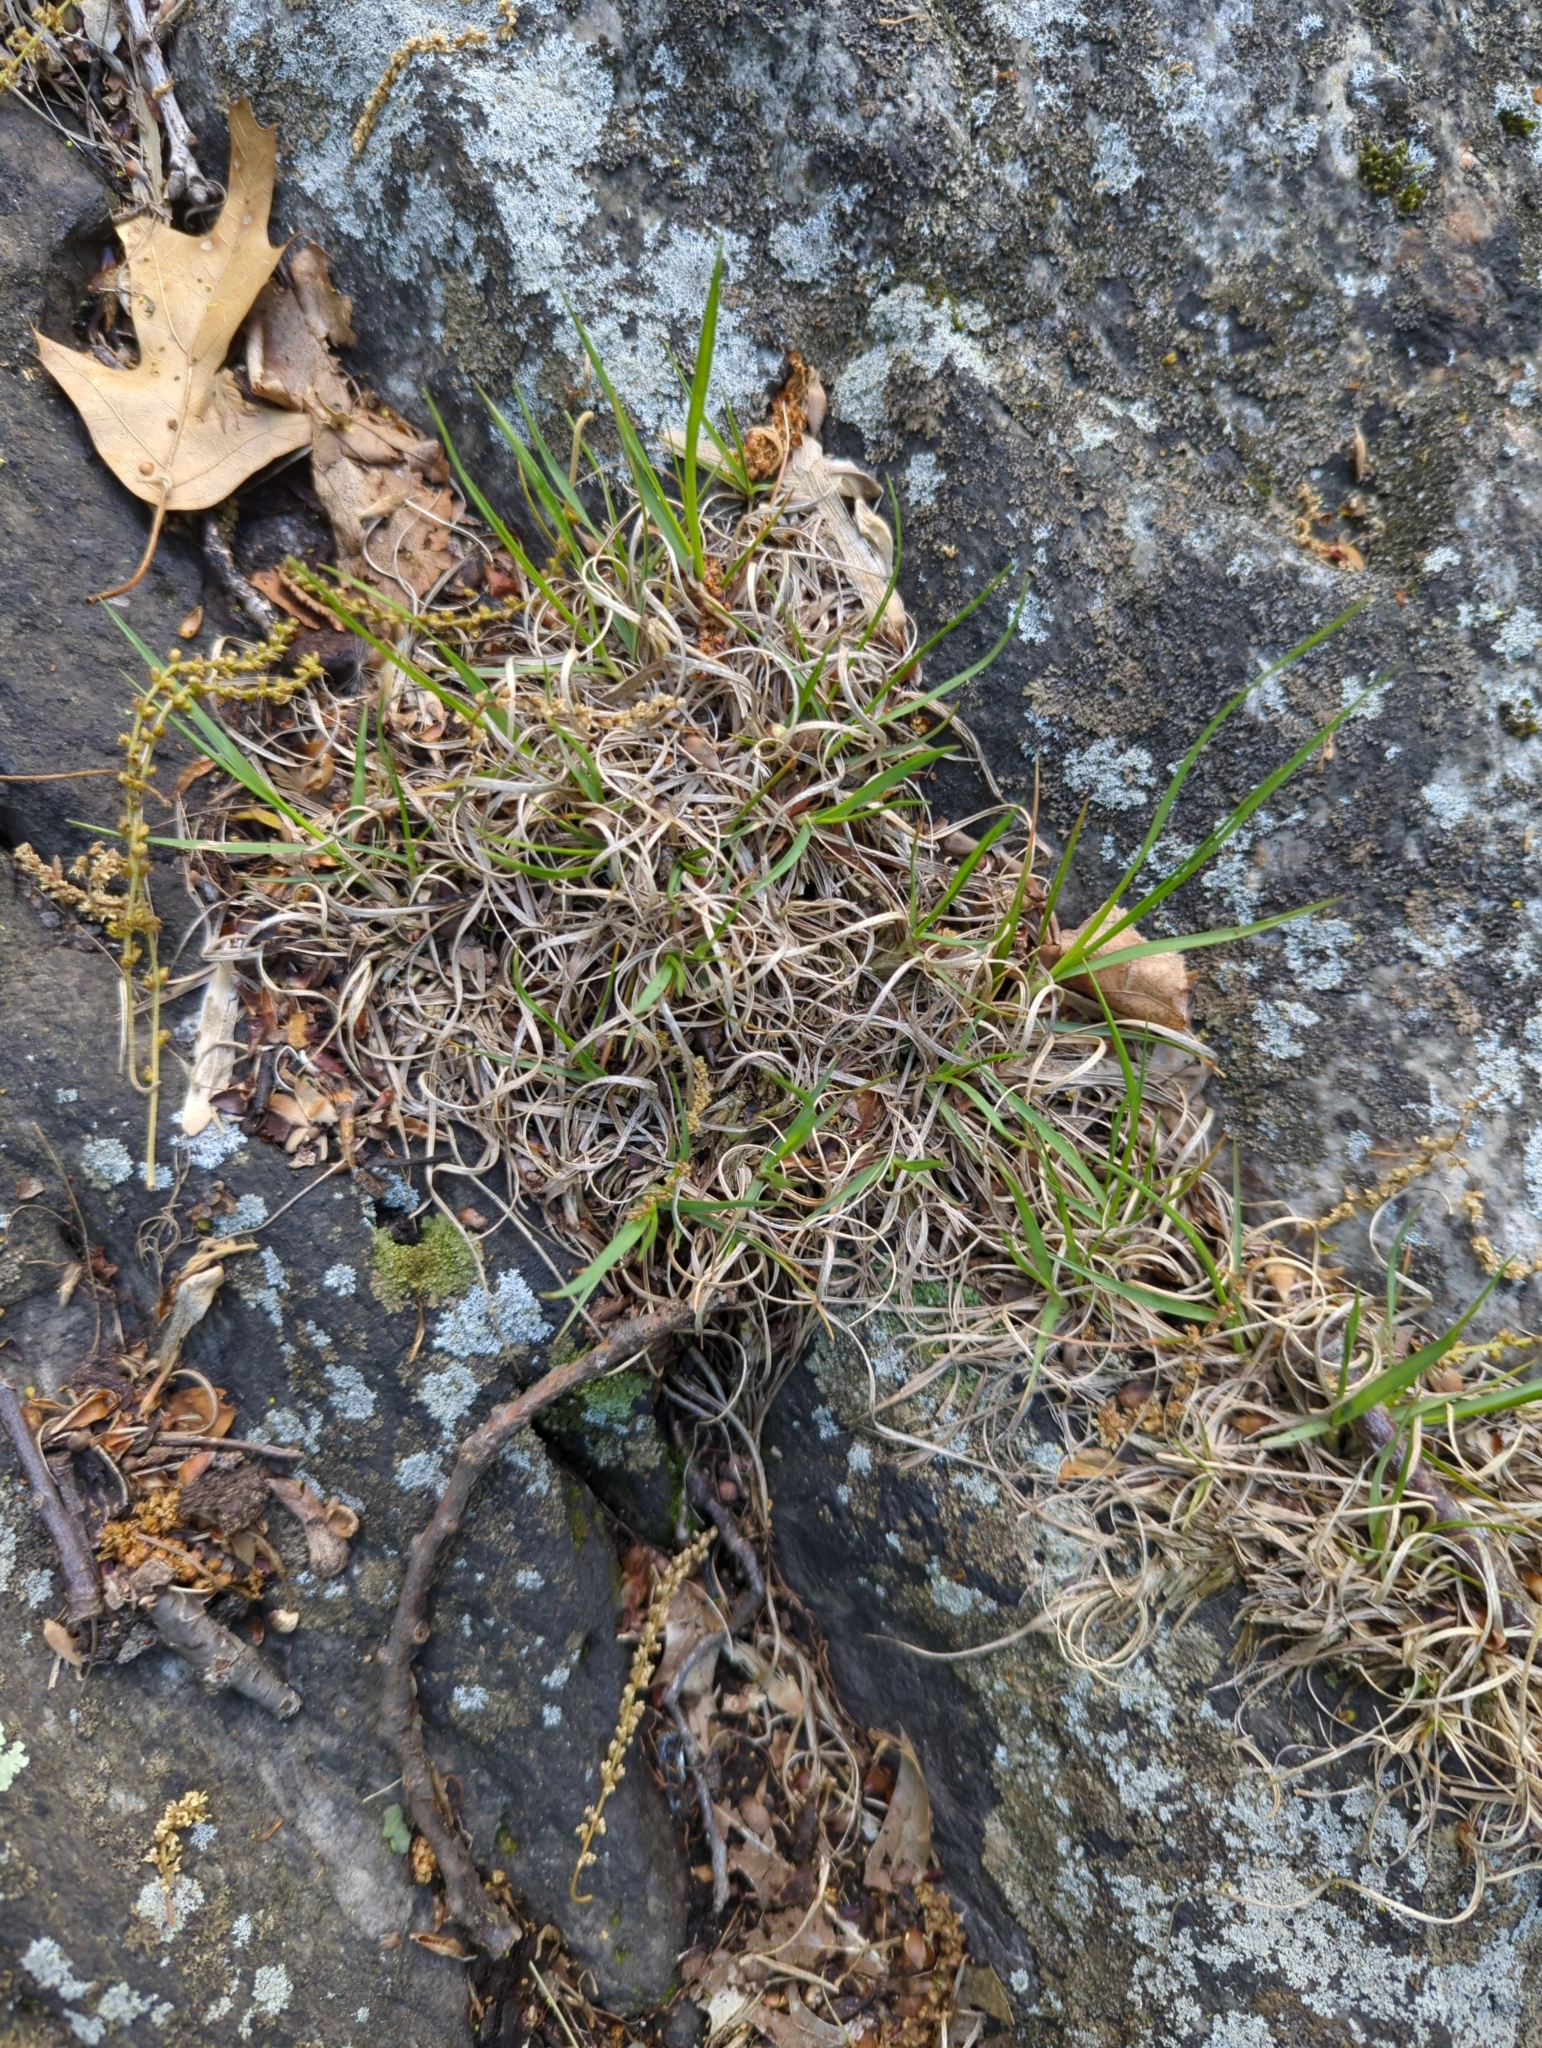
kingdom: Plantae
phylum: Tracheophyta
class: Liliopsida
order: Poales
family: Poaceae
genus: Danthonia
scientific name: Danthonia spicata
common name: Common wild oatgrass
